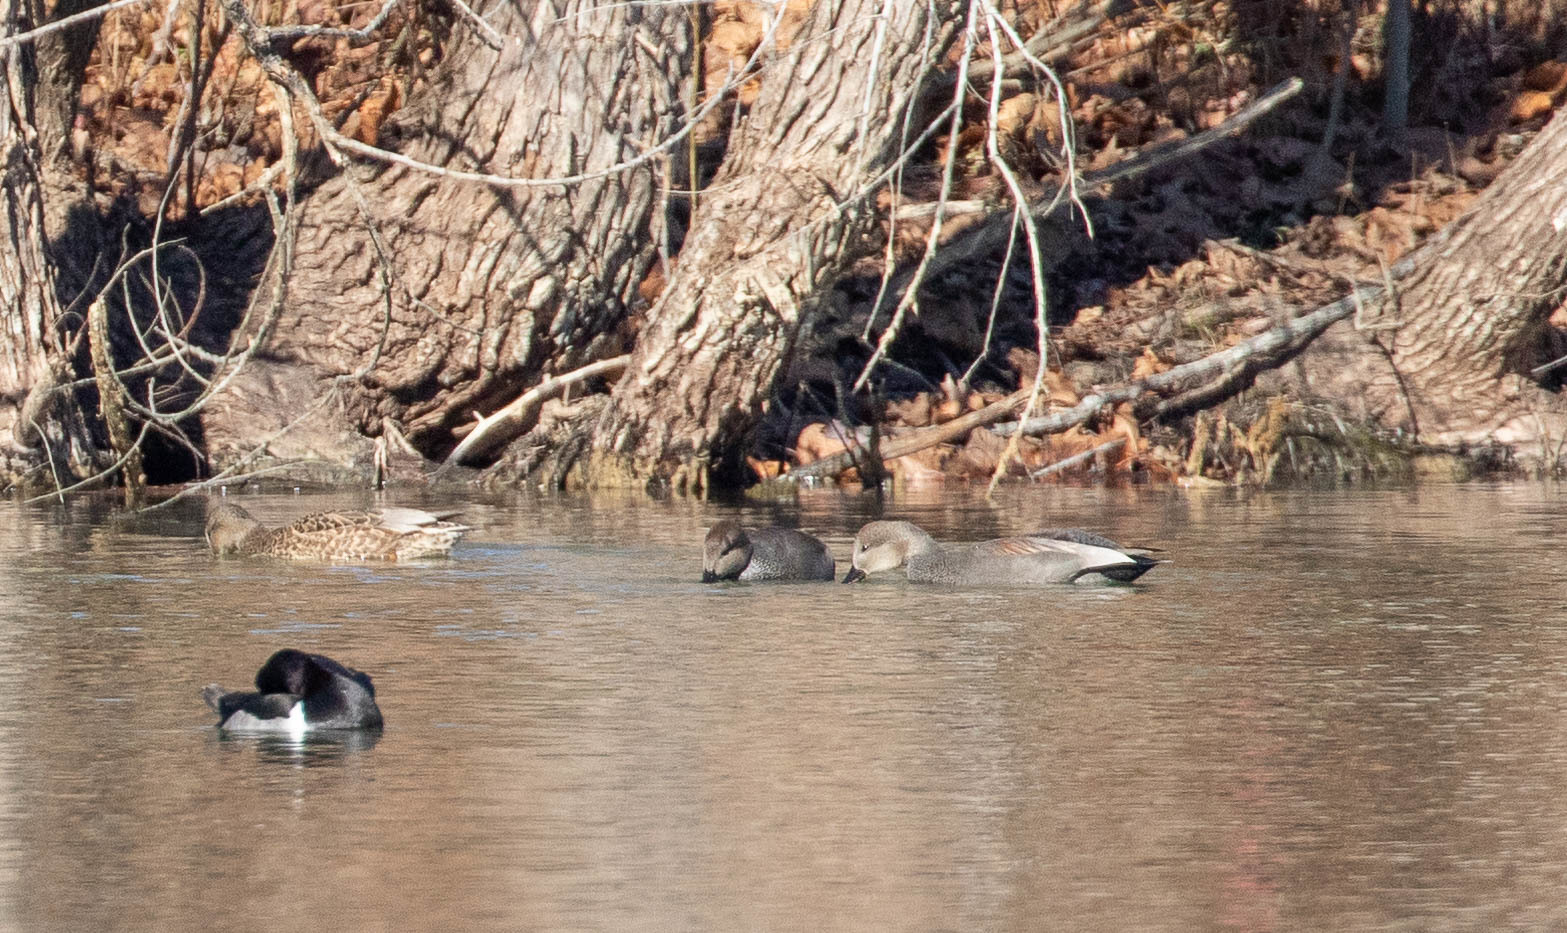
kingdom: Animalia
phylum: Chordata
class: Aves
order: Anseriformes
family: Anatidae
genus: Mareca
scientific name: Mareca strepera
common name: Gadwall
